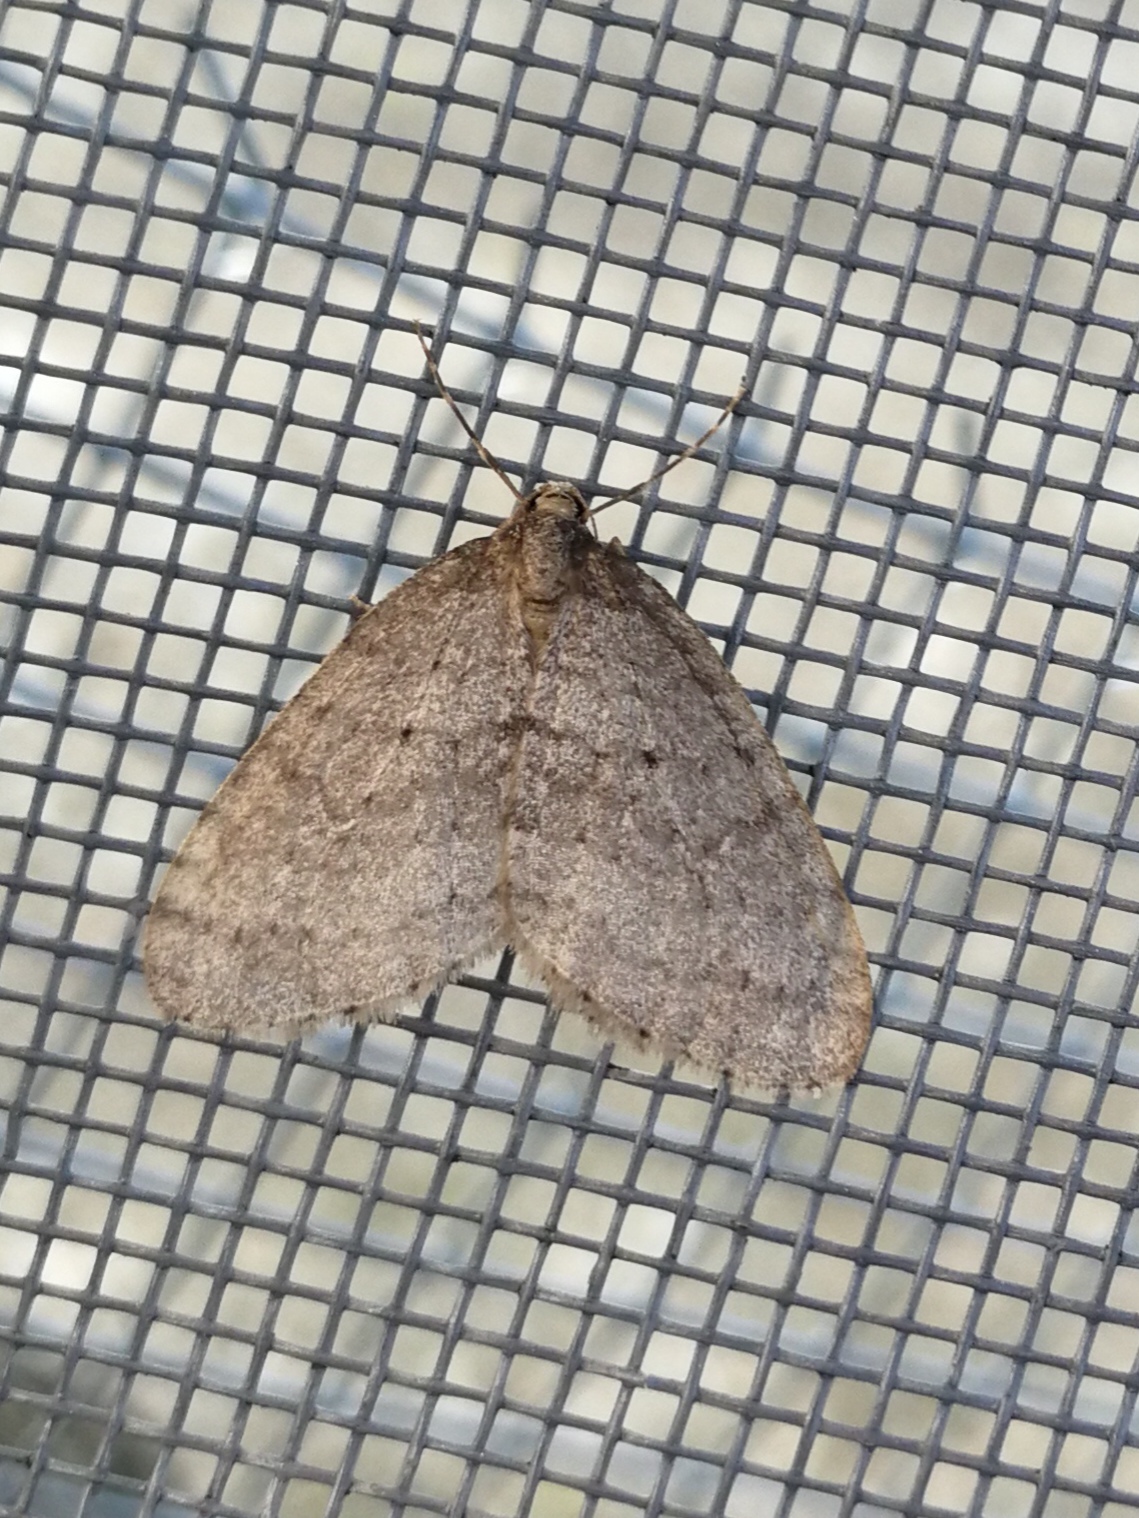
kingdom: Animalia
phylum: Arthropoda
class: Insecta
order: Lepidoptera
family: Geometridae
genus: Operophtera
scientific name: Operophtera brumata
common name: Winter moth
